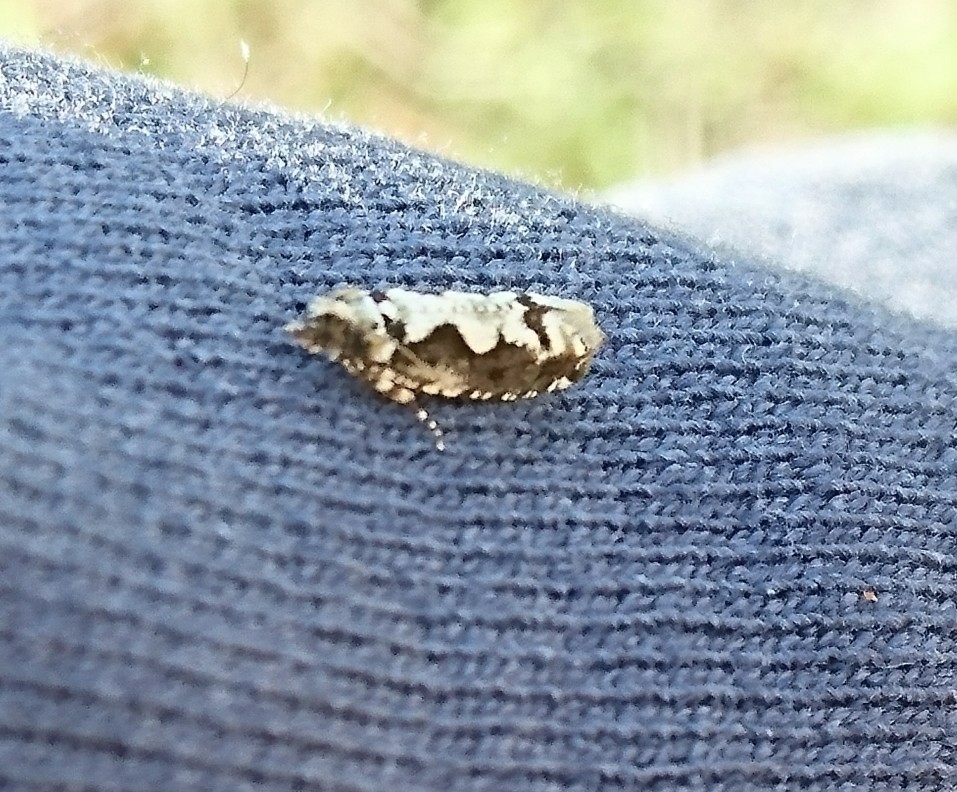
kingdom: Animalia
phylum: Arthropoda
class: Insecta
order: Lepidoptera
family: Tortricidae
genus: Chimoptesis
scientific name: Chimoptesis pennsylvaniana
